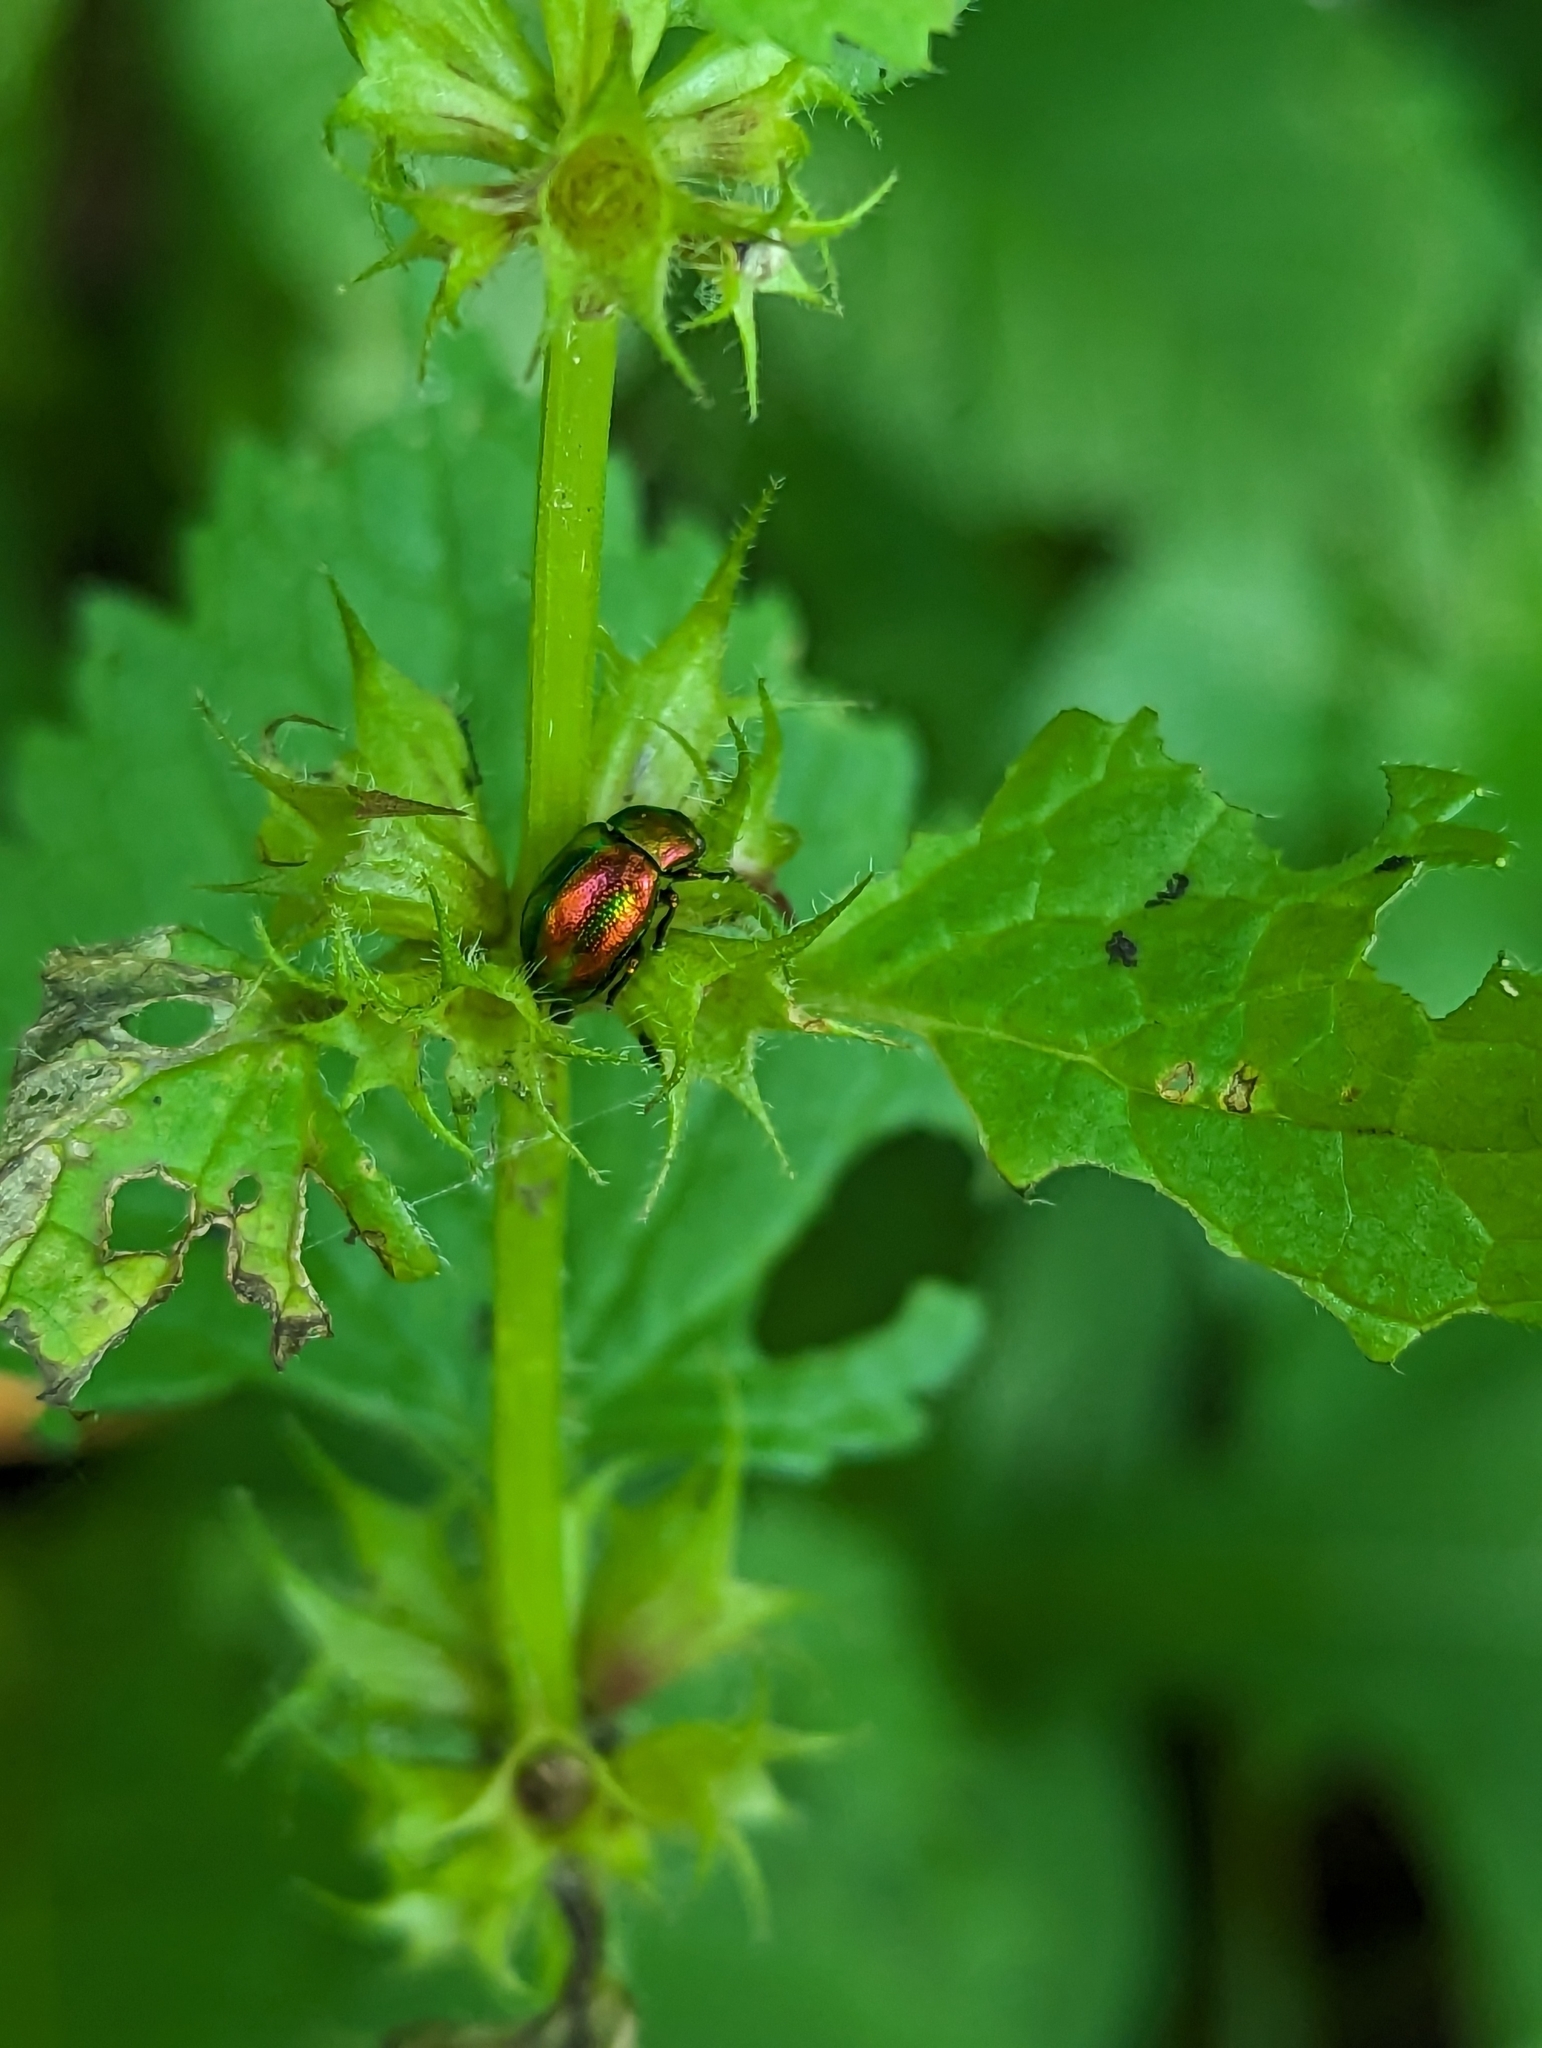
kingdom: Animalia
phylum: Arthropoda
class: Insecta
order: Coleoptera
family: Chrysomelidae
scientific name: Chrysomelidae
